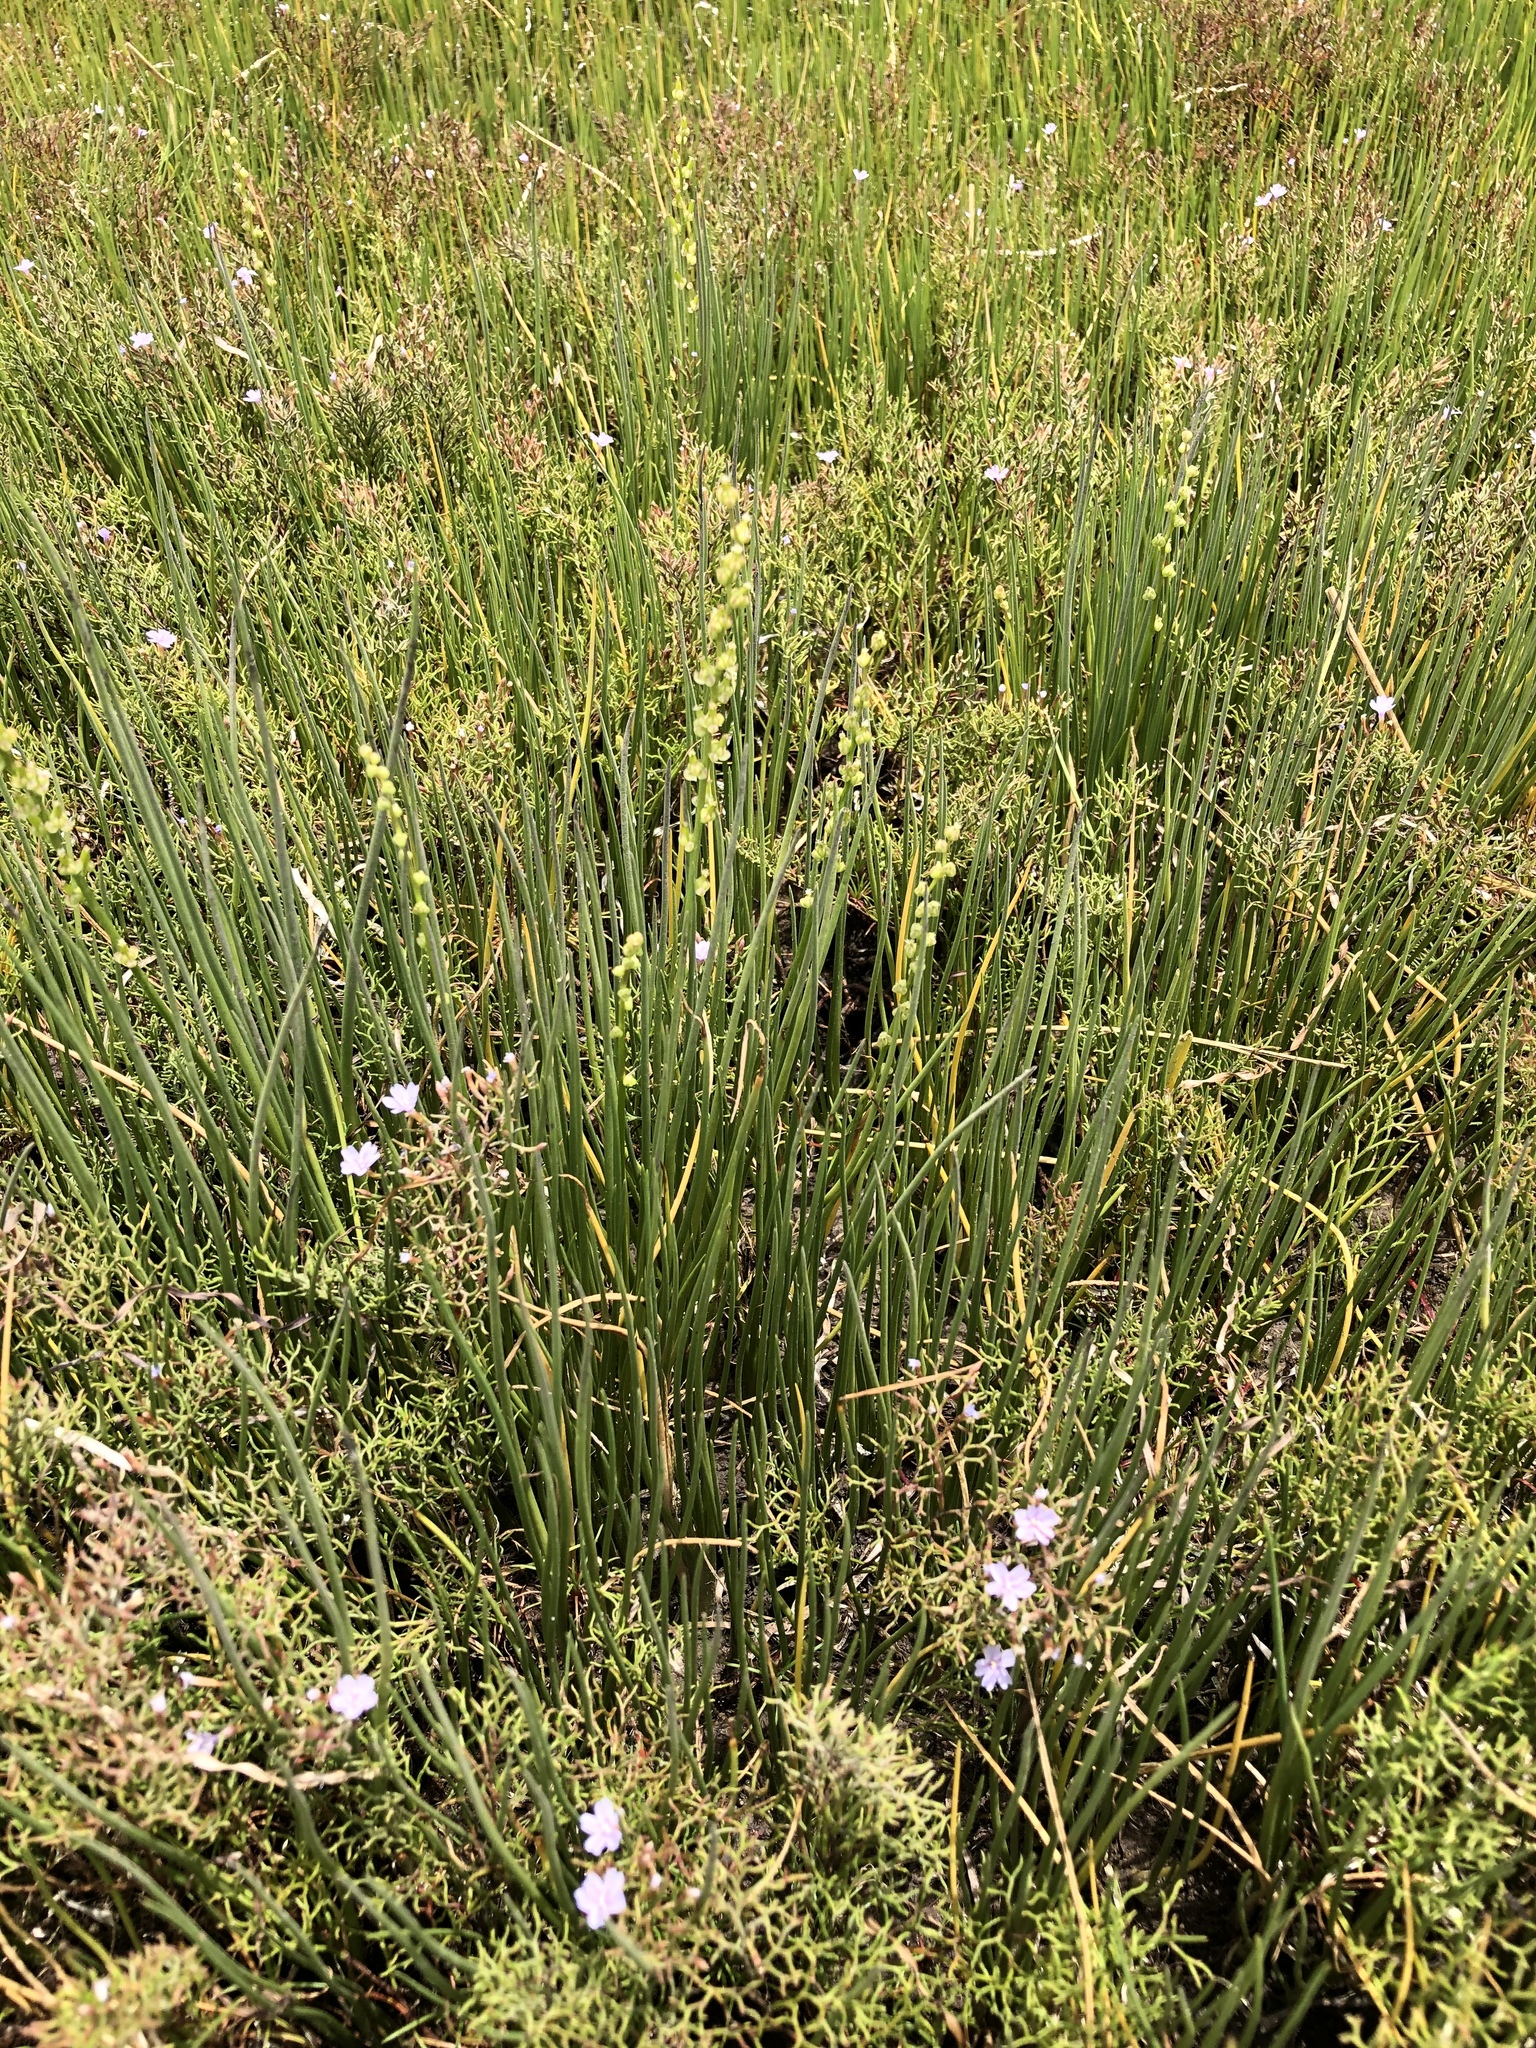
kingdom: Plantae
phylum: Tracheophyta
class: Liliopsida
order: Alismatales
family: Juncaginaceae
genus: Triglochin
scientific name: Triglochin bulbosa
